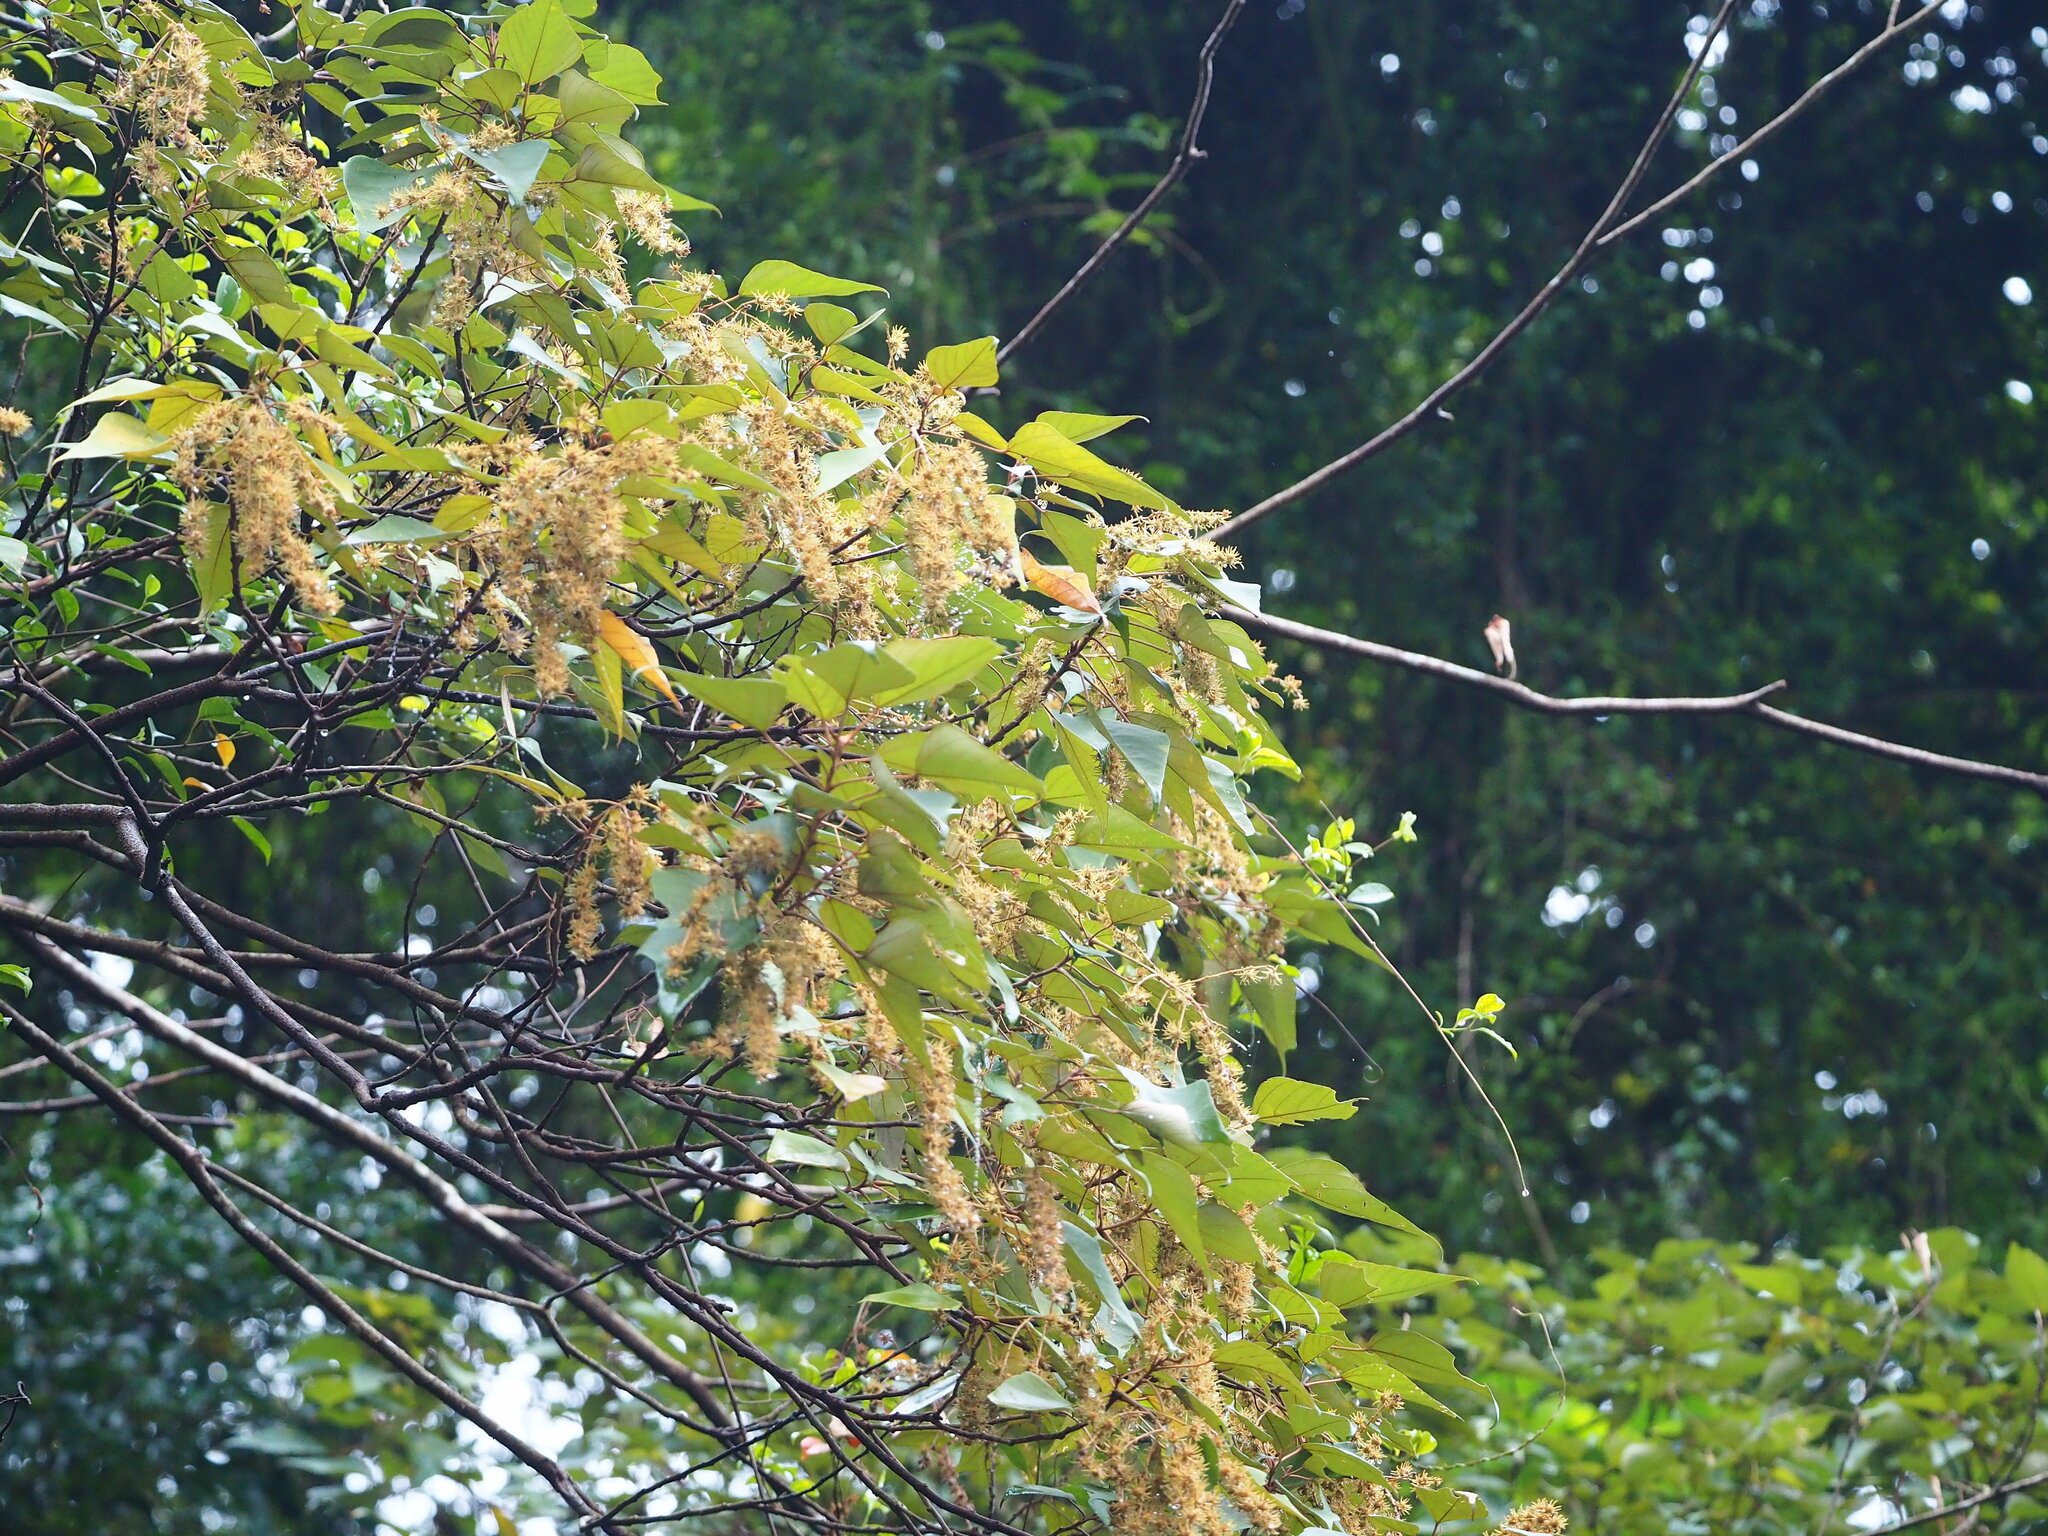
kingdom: Plantae
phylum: Tracheophyta
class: Magnoliopsida
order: Malpighiales
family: Euphorbiaceae
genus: Mallotus
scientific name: Mallotus paniculatus
